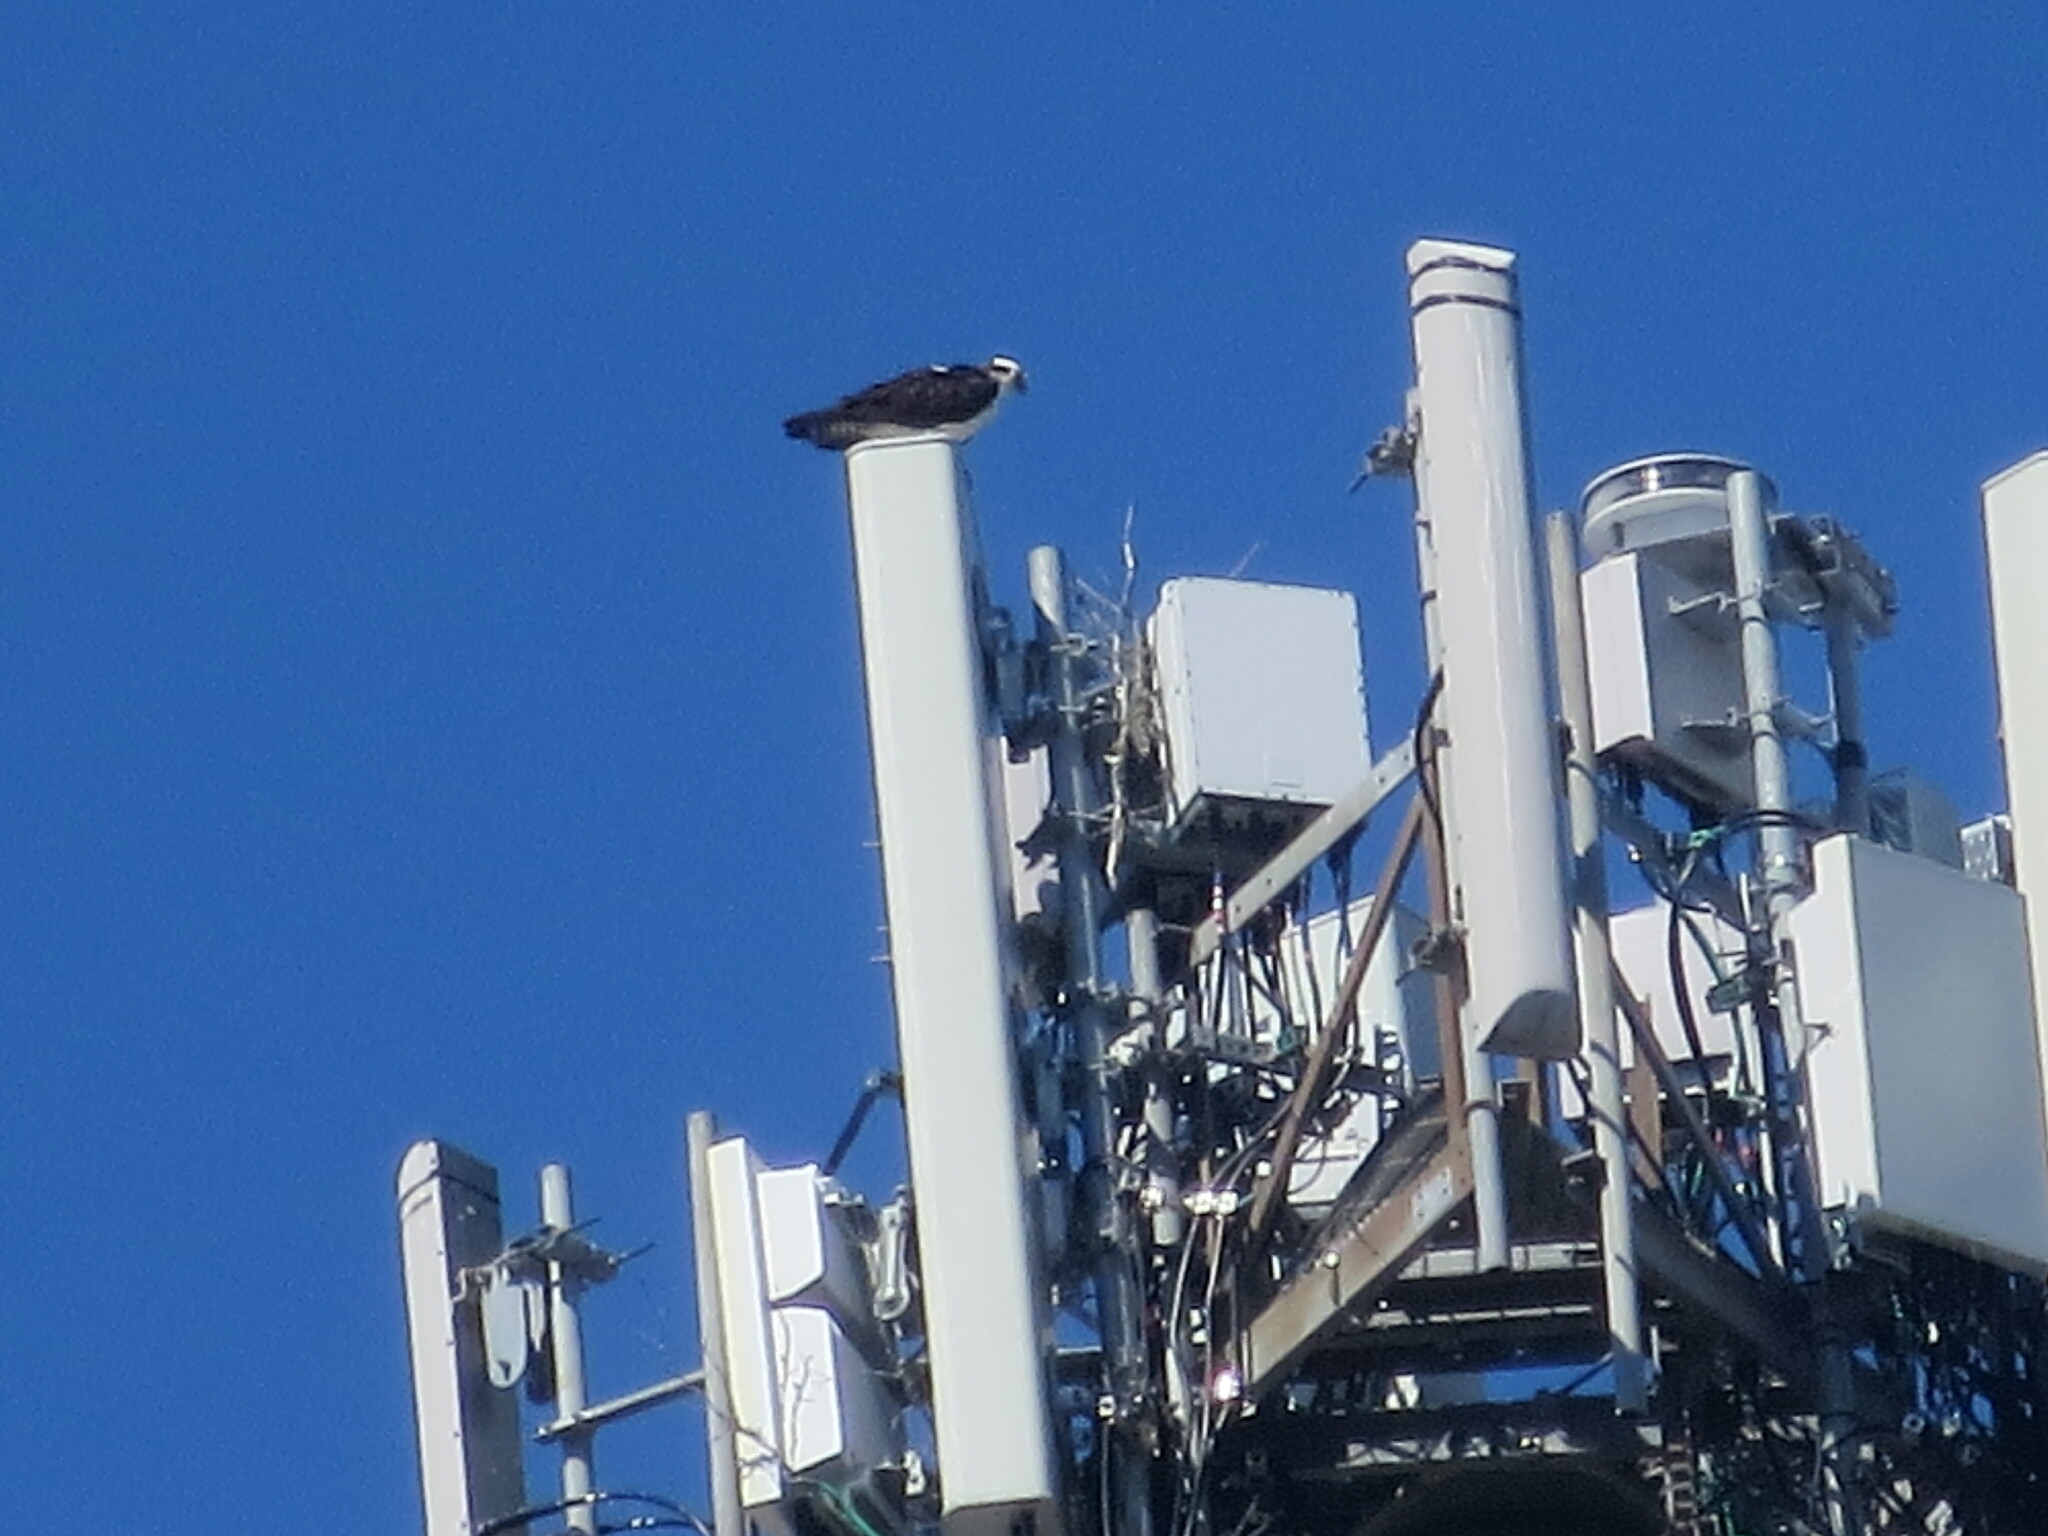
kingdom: Animalia
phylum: Chordata
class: Aves
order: Accipitriformes
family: Pandionidae
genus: Pandion
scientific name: Pandion haliaetus
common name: Osprey
